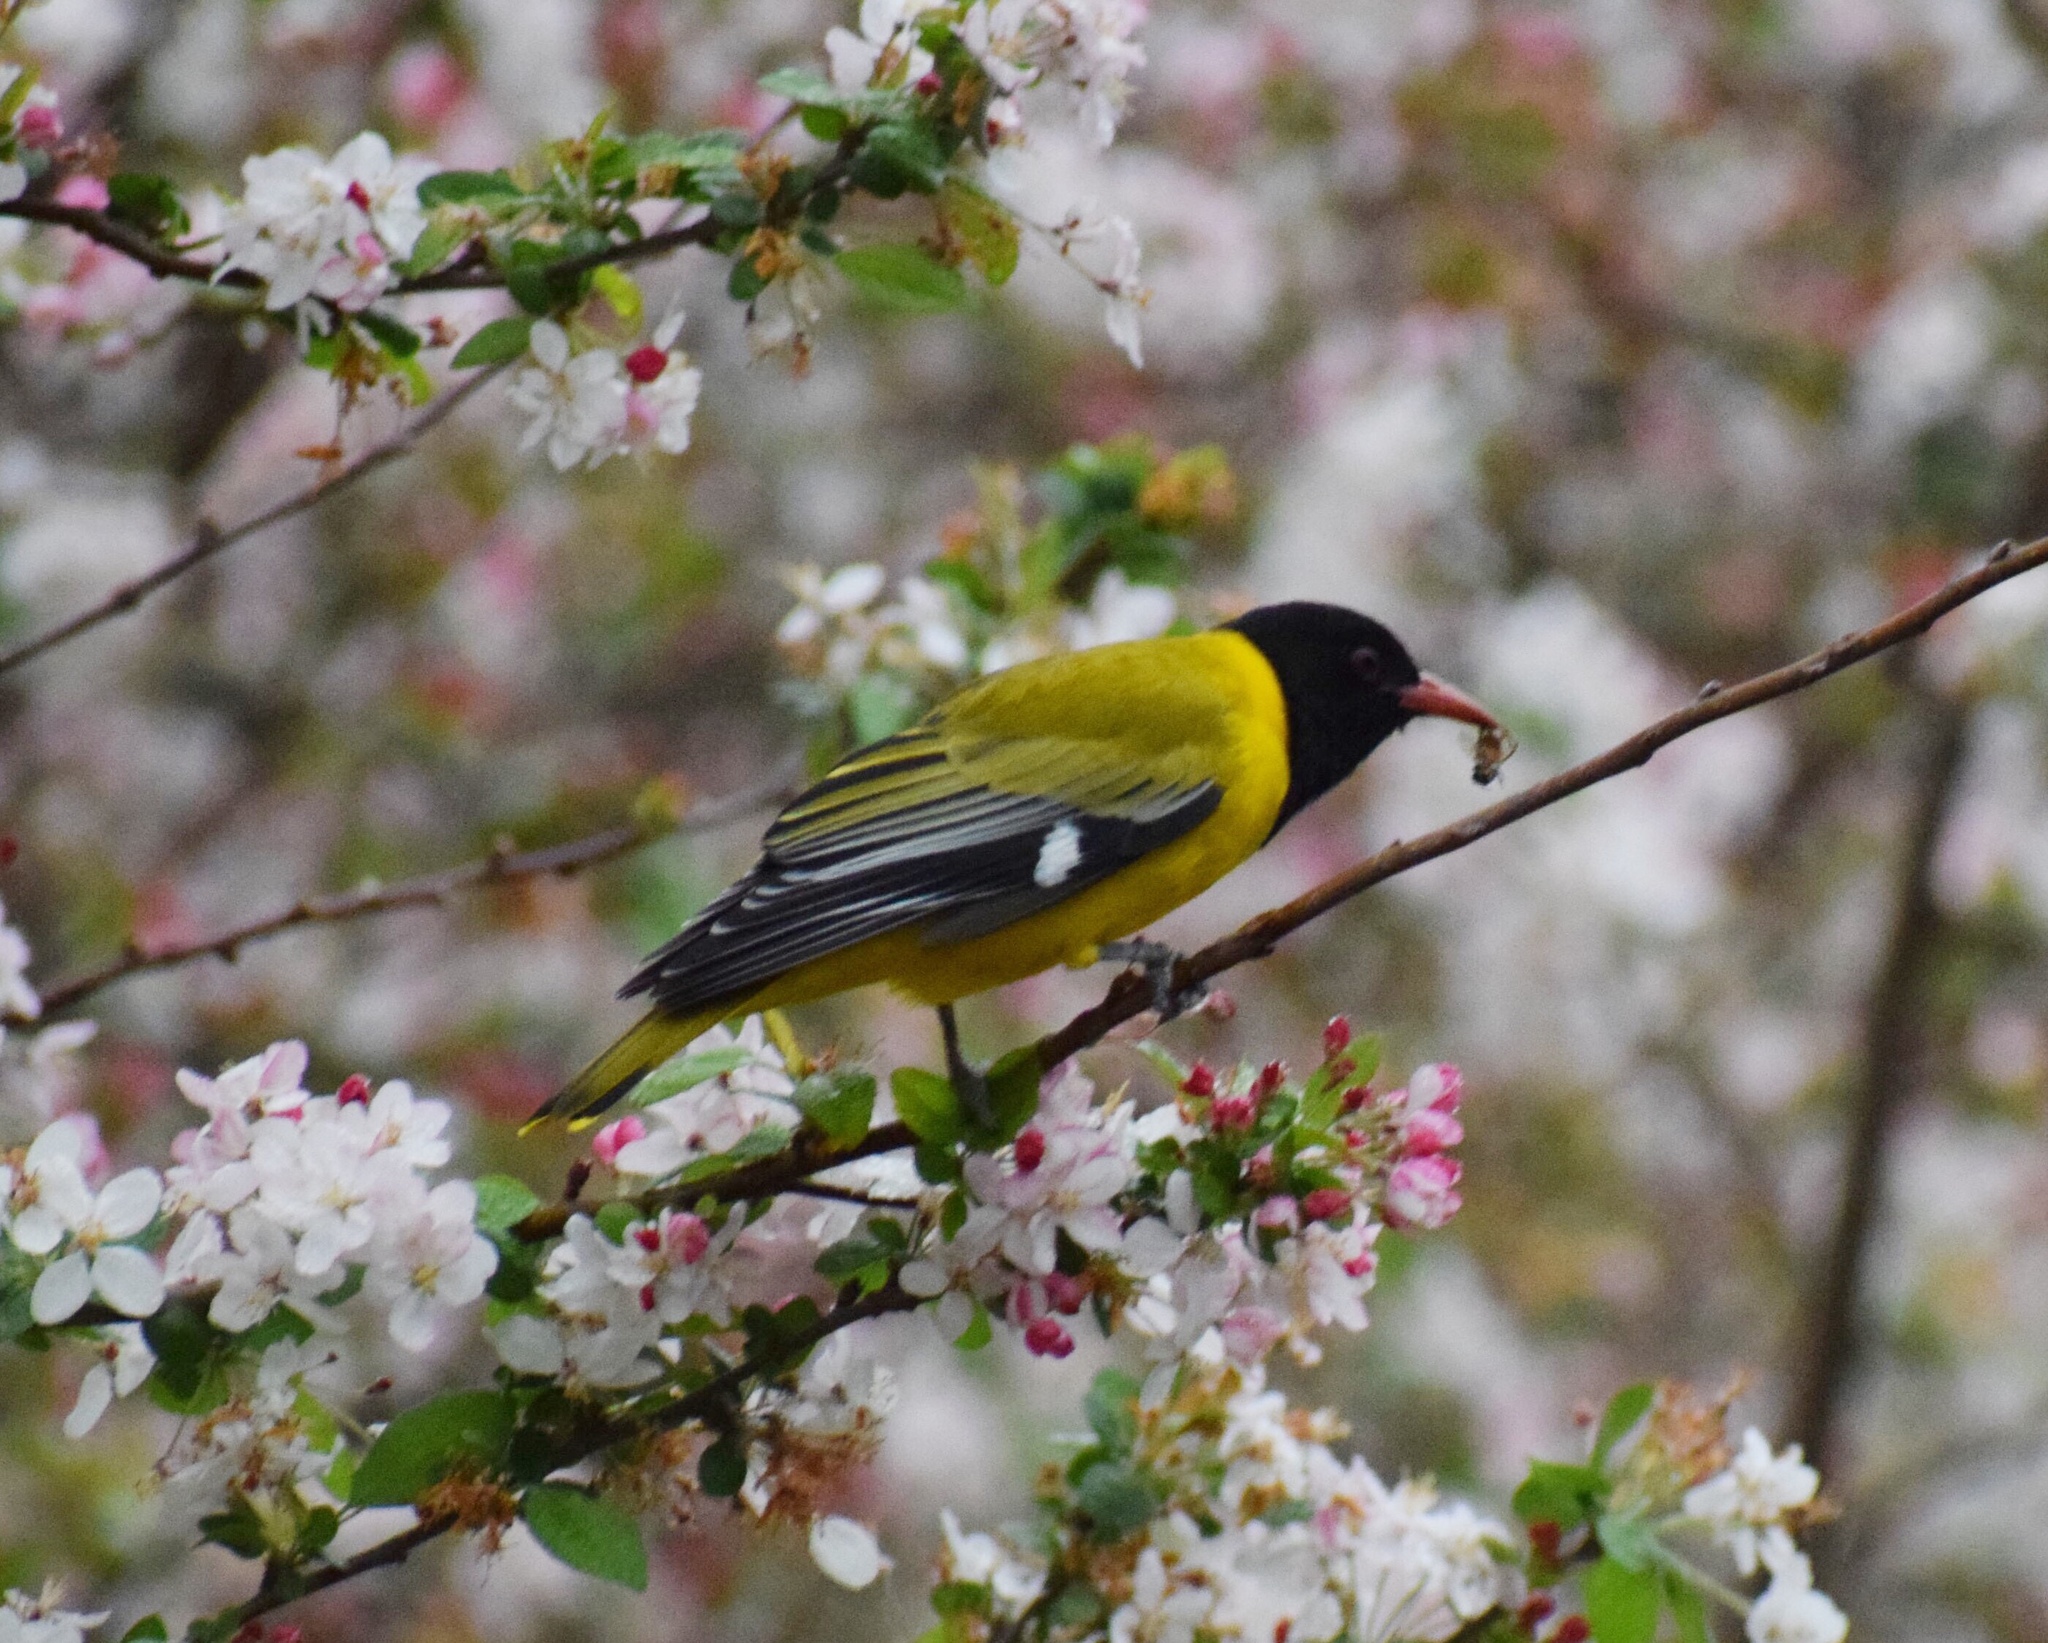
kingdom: Animalia
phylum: Chordata
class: Aves
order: Passeriformes
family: Oriolidae
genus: Oriolus
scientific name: Oriolus larvatus
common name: Black-headed oriole
